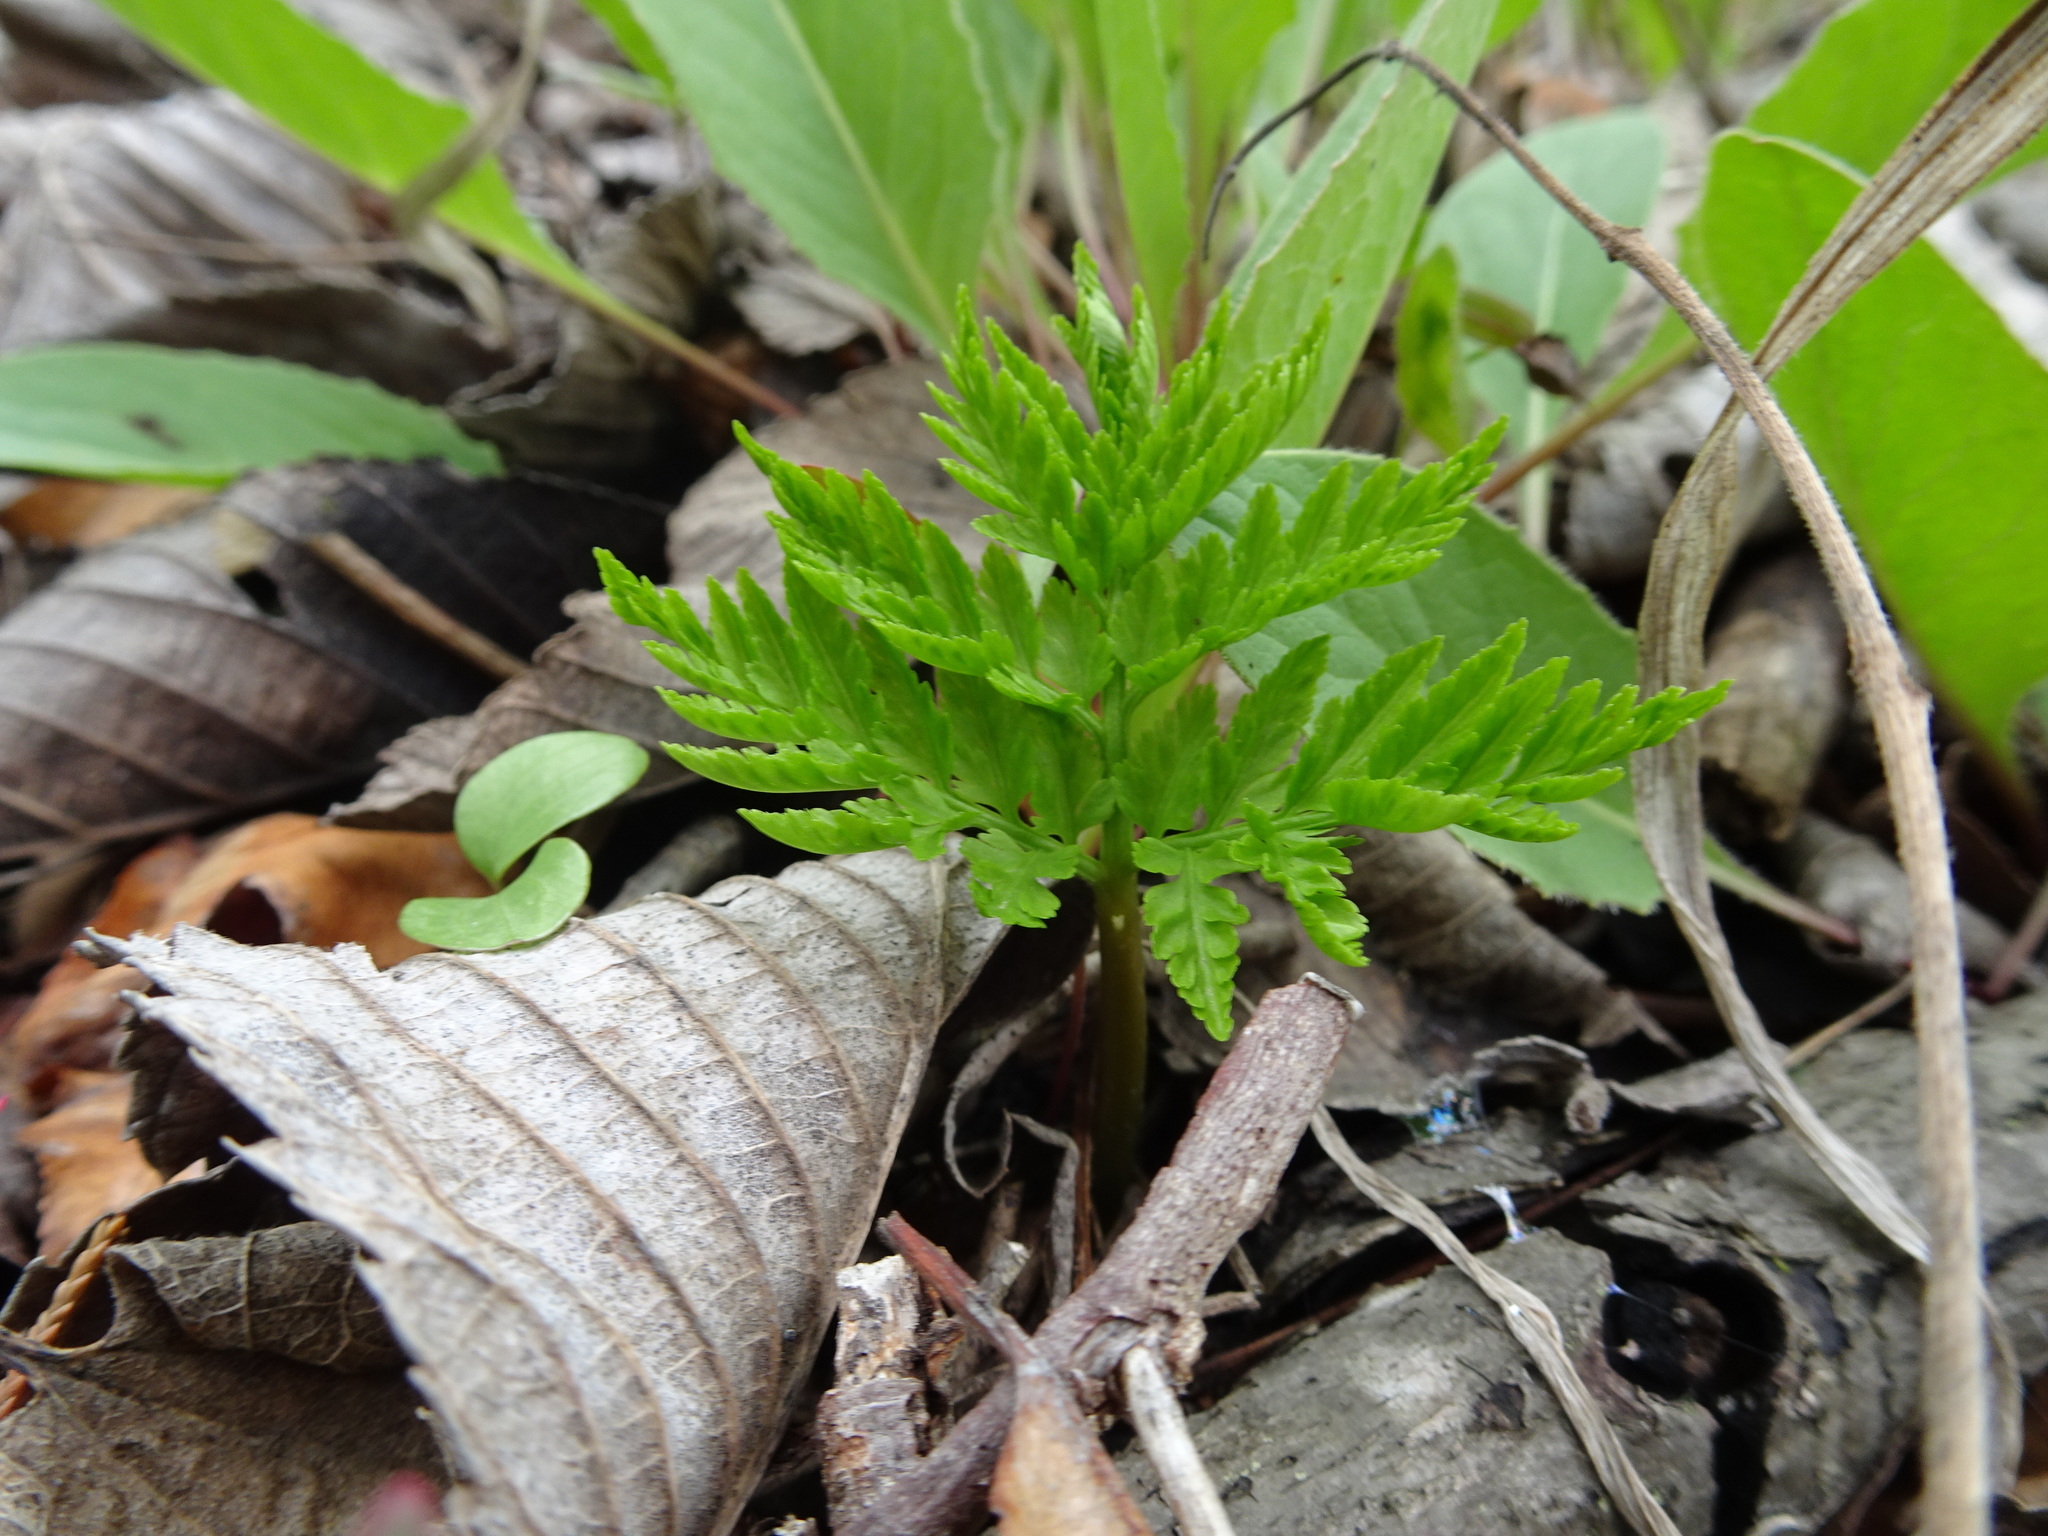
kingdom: Plantae
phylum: Tracheophyta
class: Polypodiopsida
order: Ophioglossales
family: Ophioglossaceae
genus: Botrypus
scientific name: Botrypus virginianus
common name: Common grapefern
